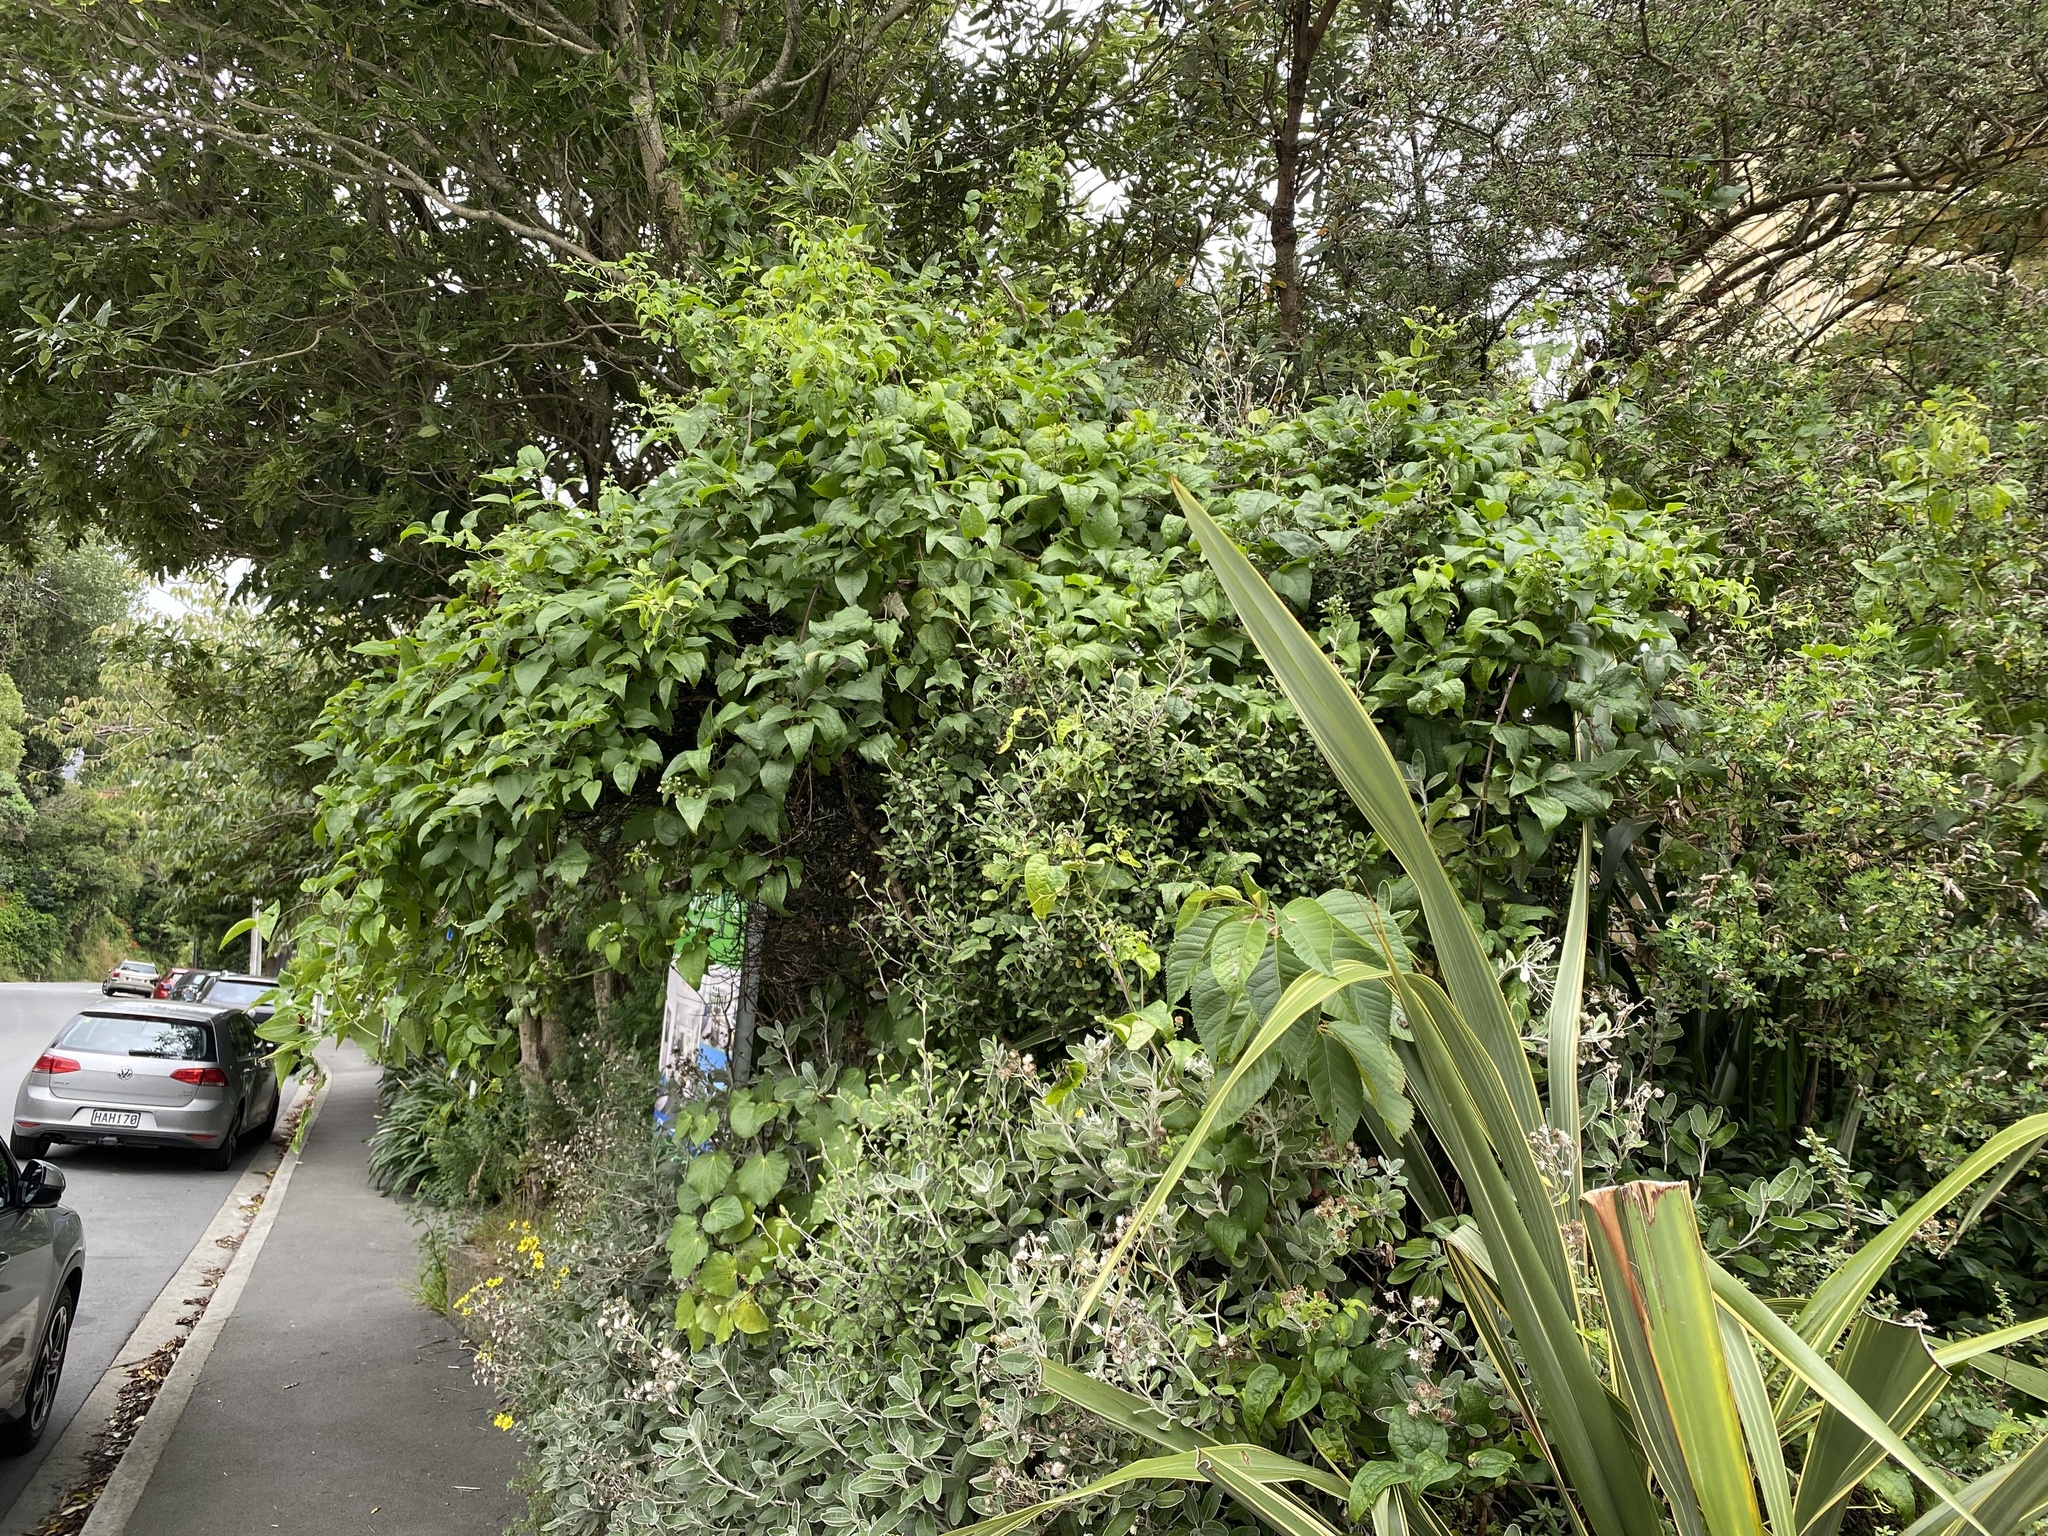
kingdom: Plantae
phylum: Tracheophyta
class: Magnoliopsida
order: Ranunculales
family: Ranunculaceae
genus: Clematis
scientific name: Clematis vitalba
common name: Evergreen clematis
